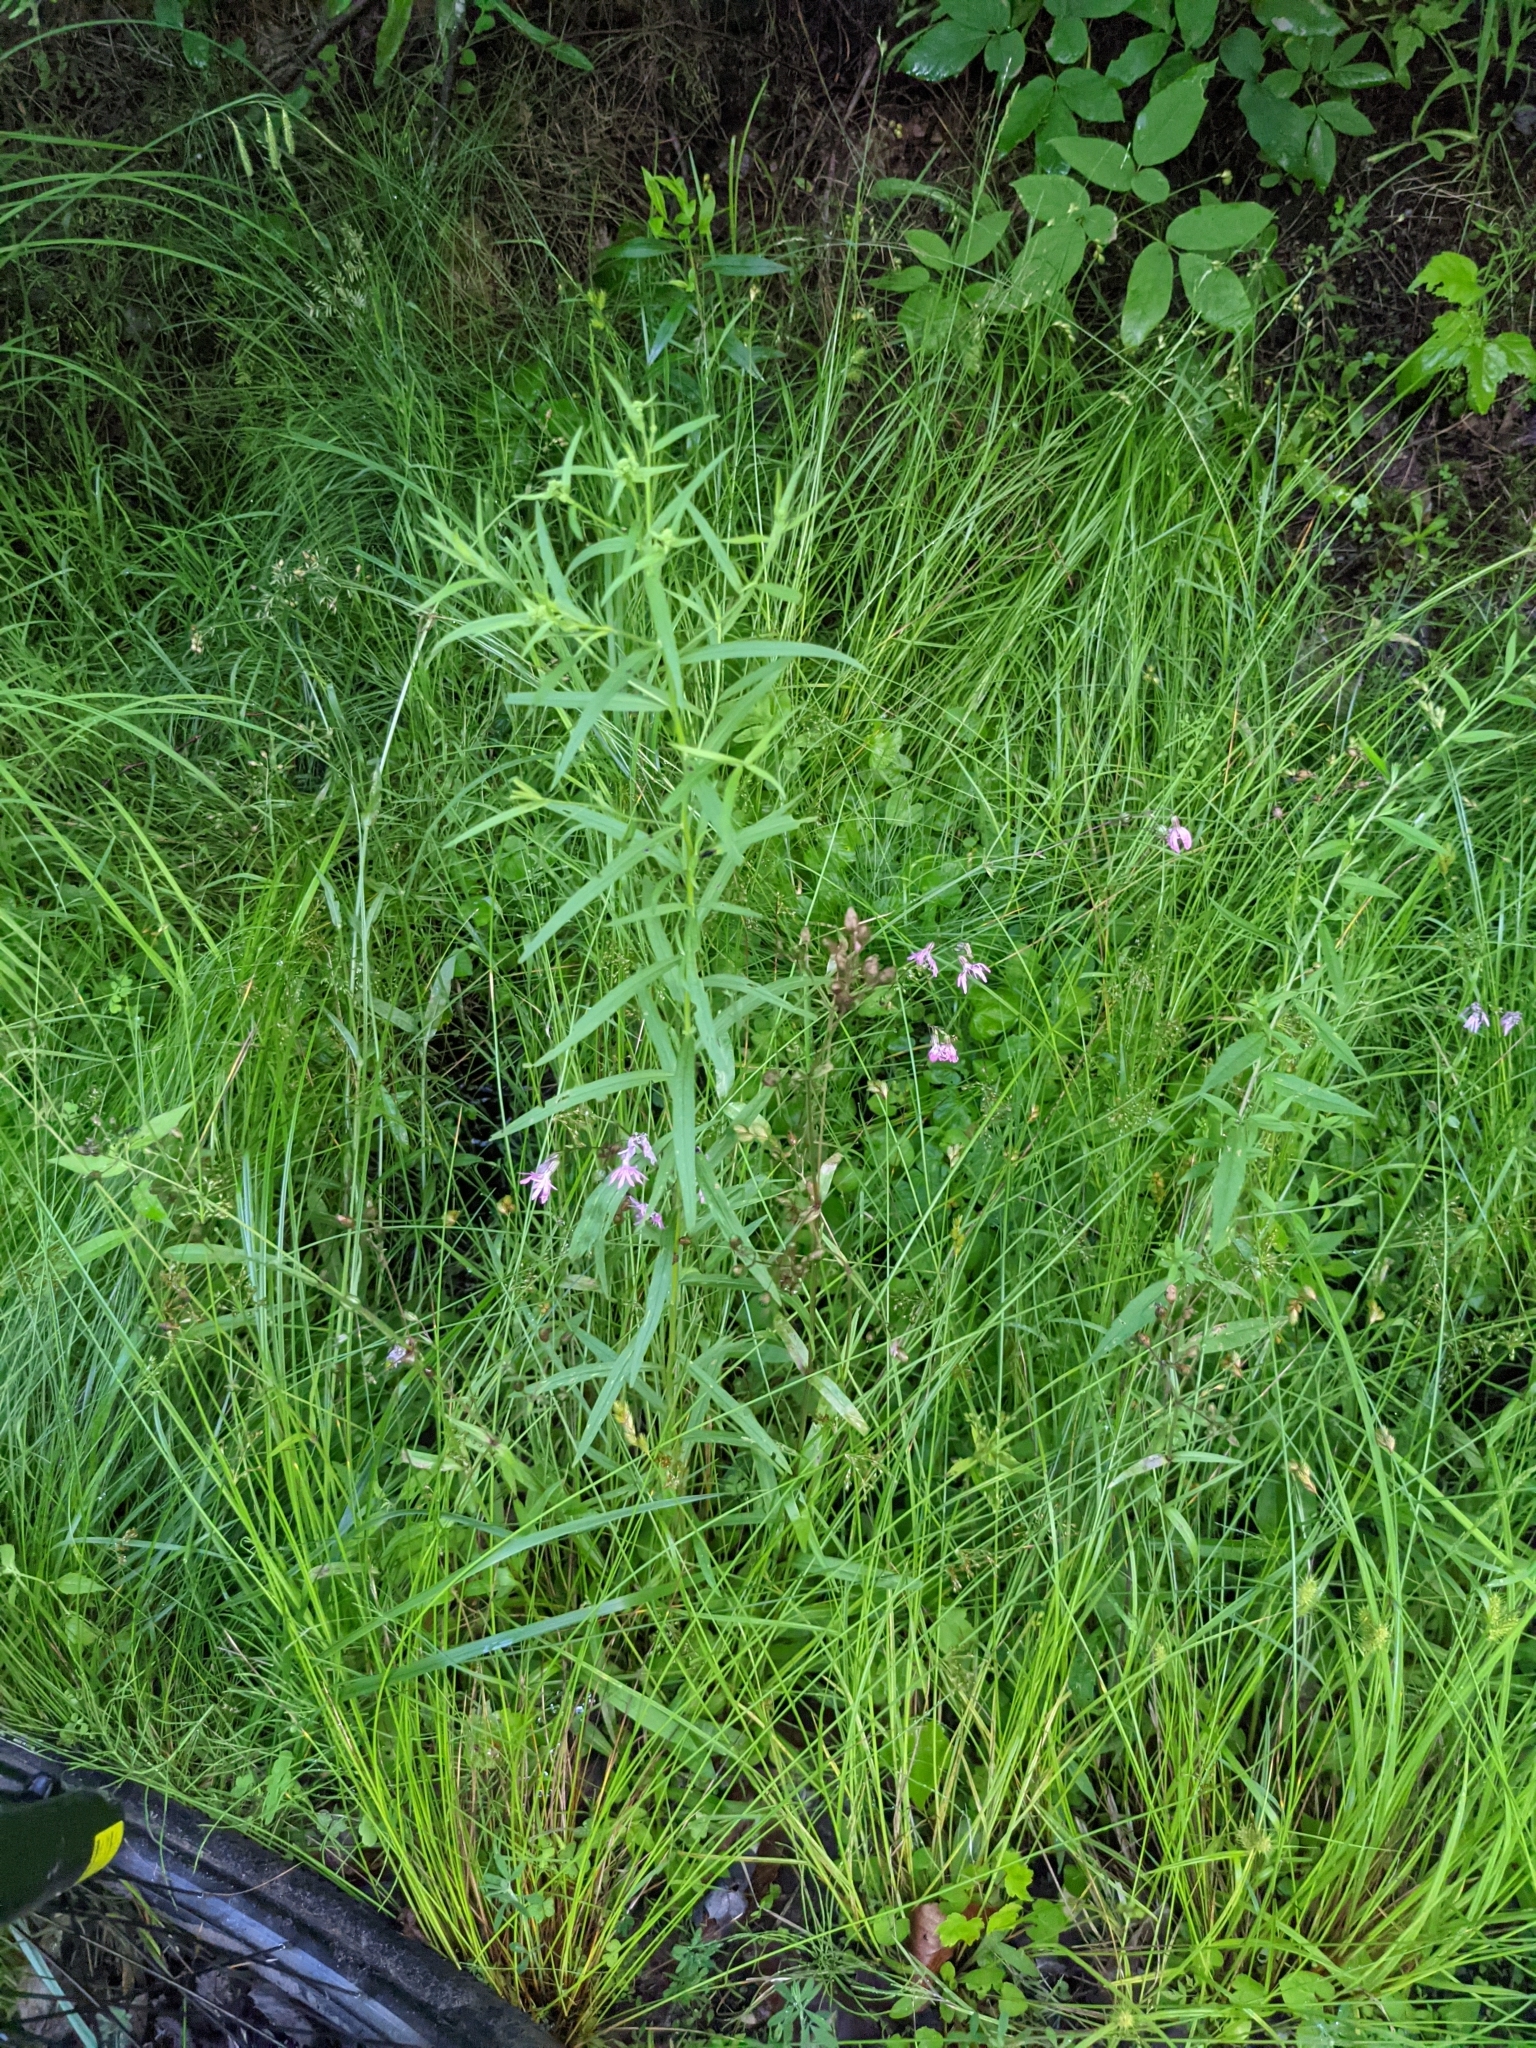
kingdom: Plantae
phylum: Tracheophyta
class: Magnoliopsida
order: Caryophyllales
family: Caryophyllaceae
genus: Silene
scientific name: Silene flos-cuculi
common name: Ragged-robin
